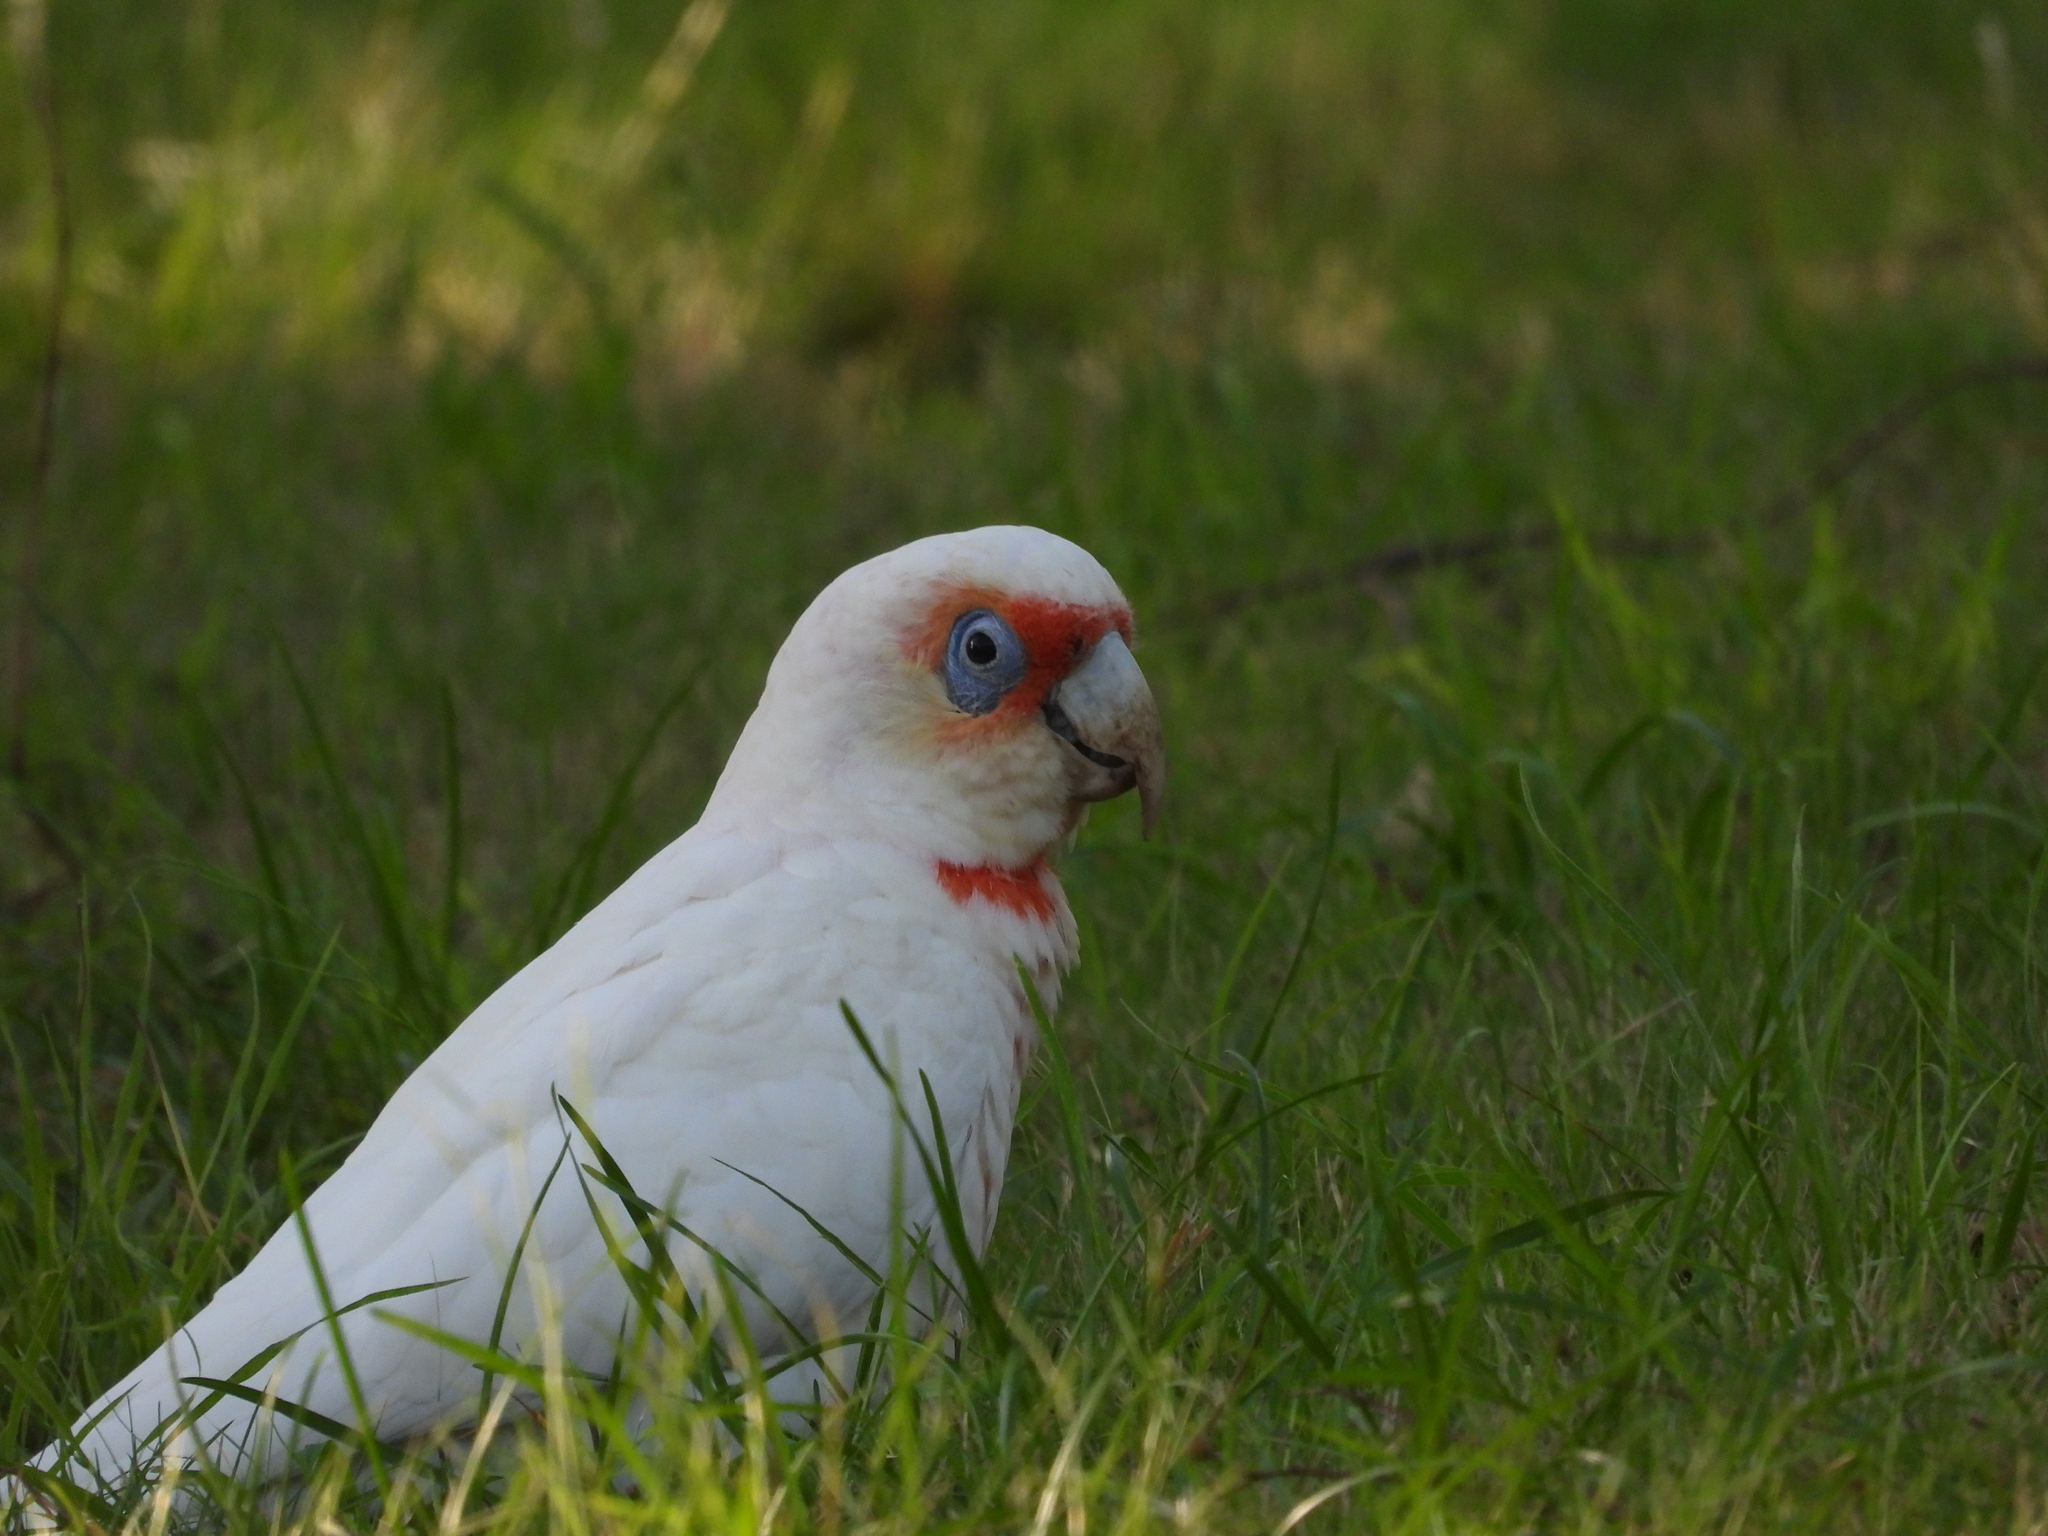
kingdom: Animalia
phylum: Chordata
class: Aves
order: Psittaciformes
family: Psittacidae
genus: Cacatua
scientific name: Cacatua tenuirostris
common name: Long-billed corella
